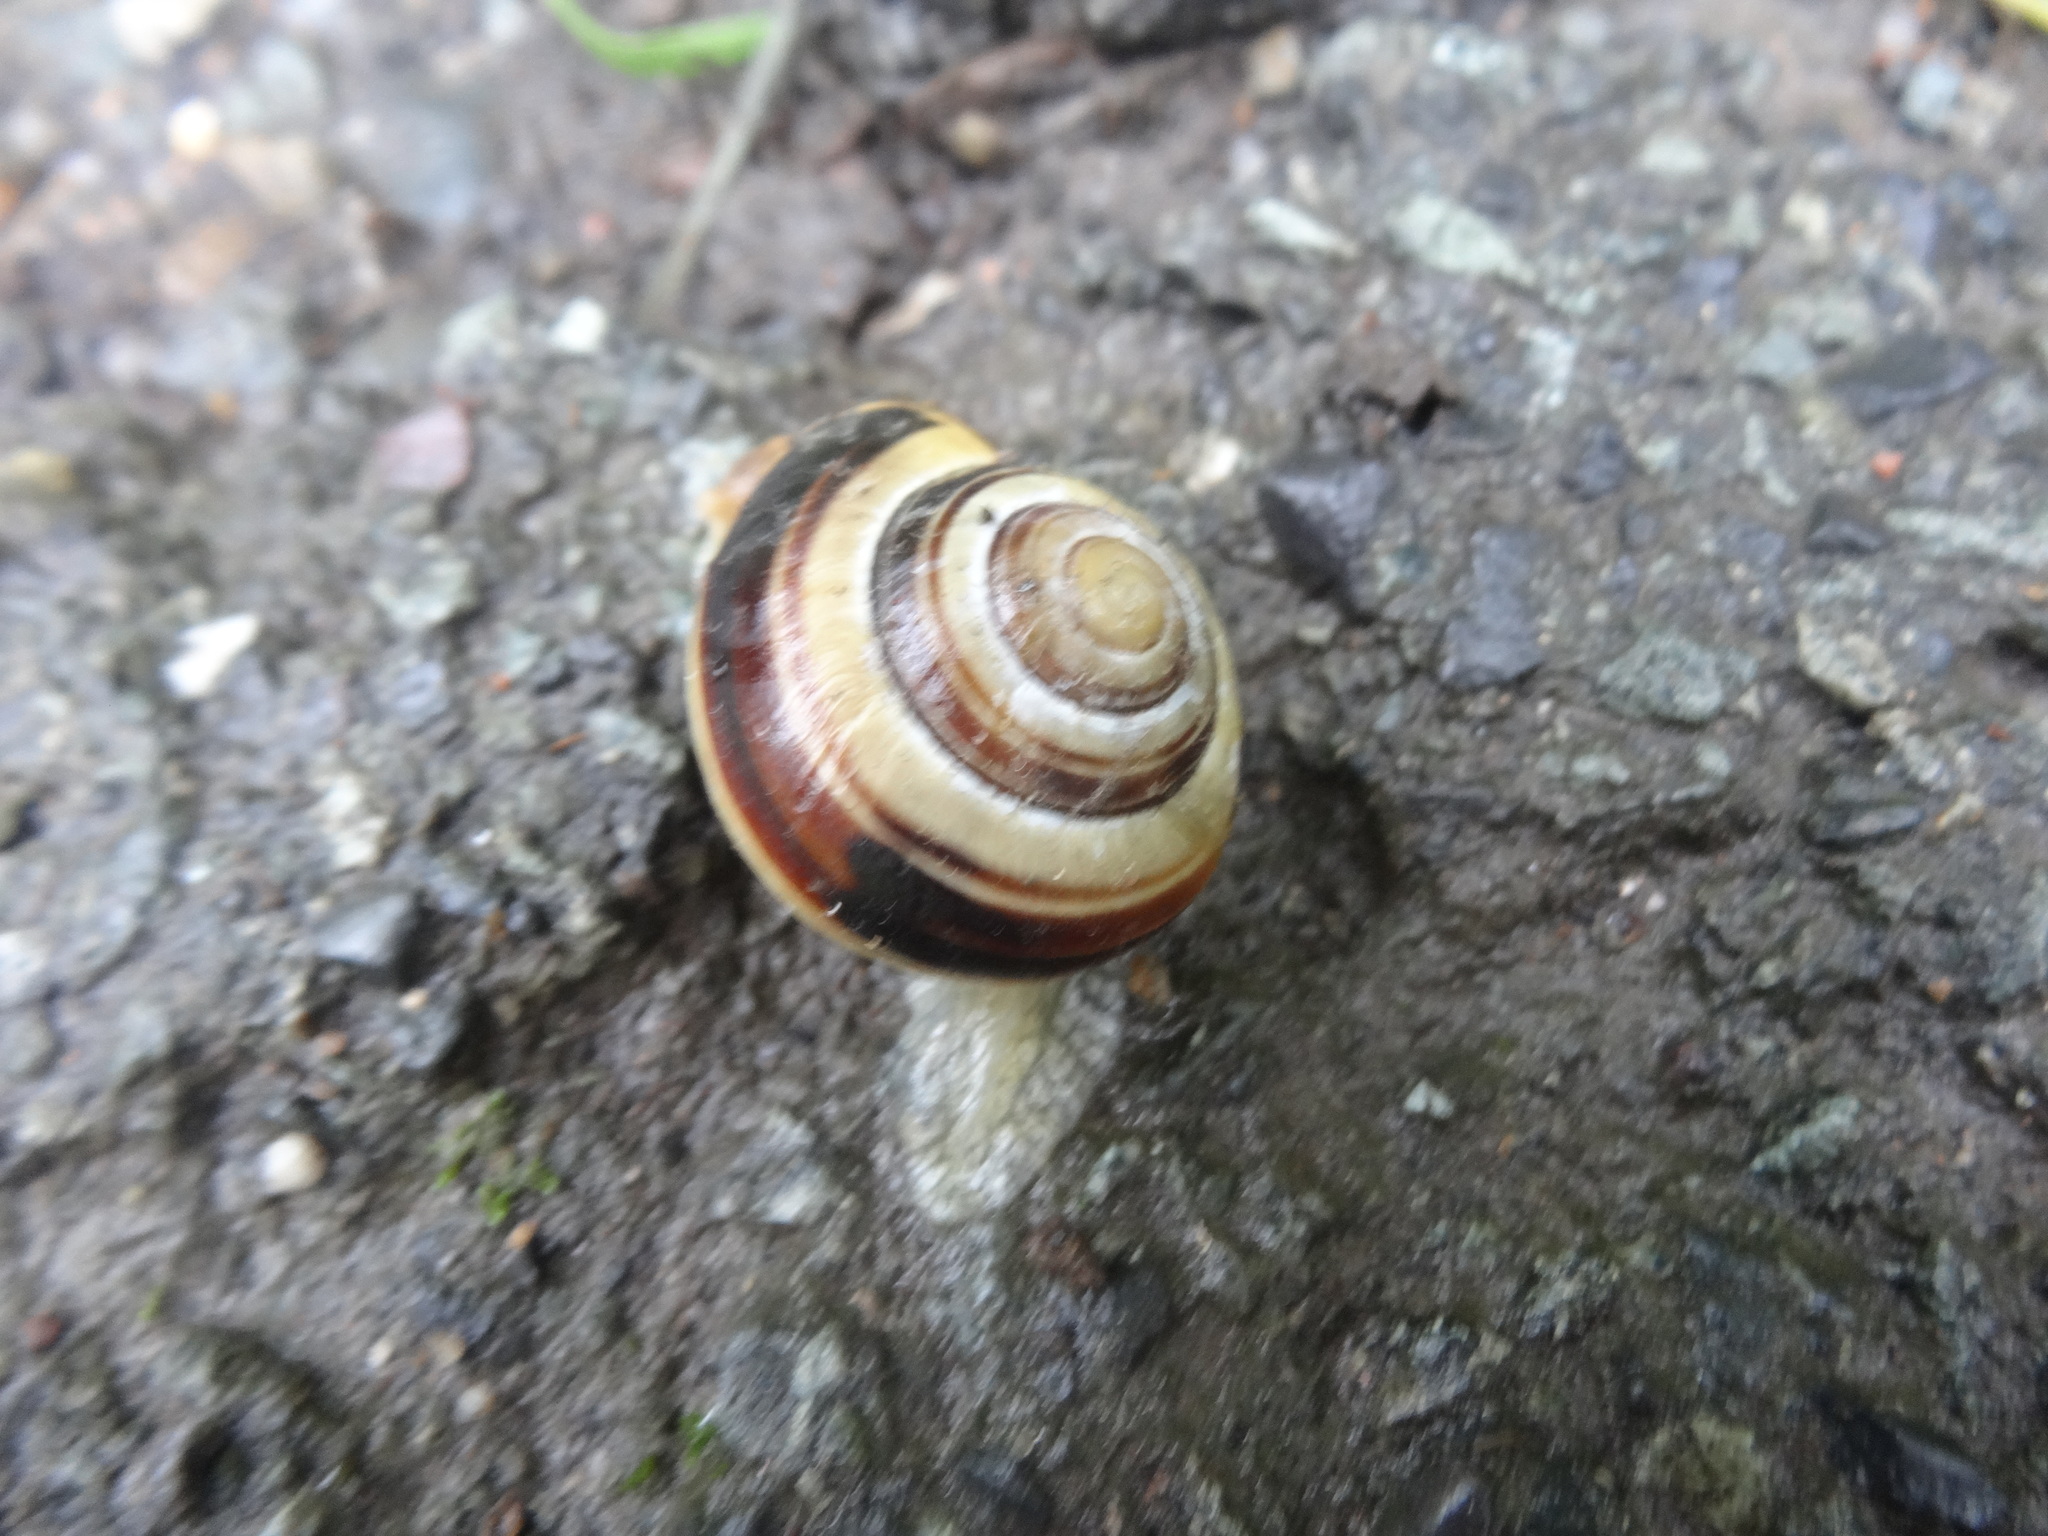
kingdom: Animalia
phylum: Mollusca
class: Gastropoda
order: Stylommatophora
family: Helicidae
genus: Cepaea
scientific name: Cepaea nemoralis
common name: Grovesnail
